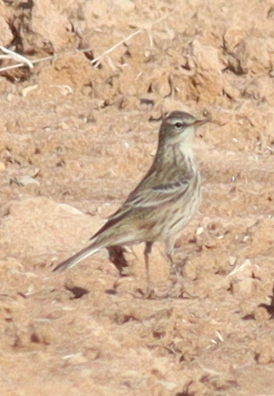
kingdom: Animalia
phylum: Chordata
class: Aves
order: Passeriformes
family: Motacillidae
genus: Anthus
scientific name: Anthus spinoletta
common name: Water pipit
